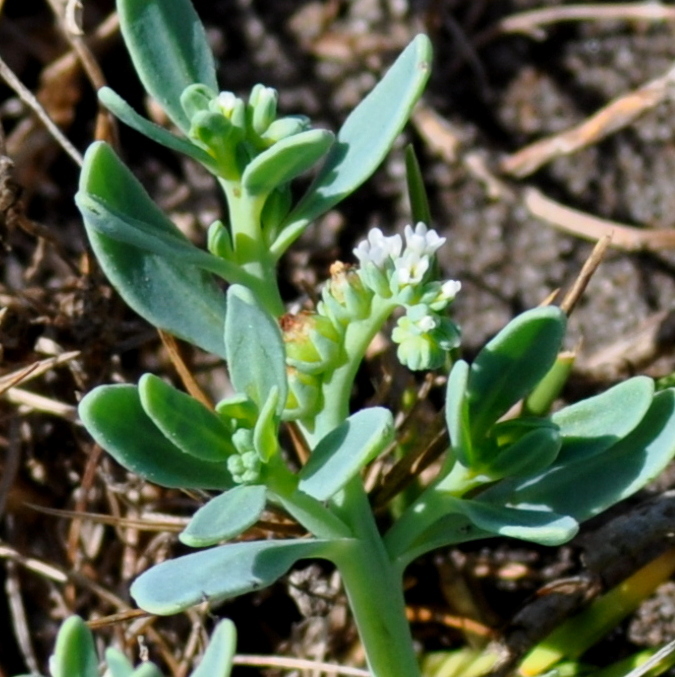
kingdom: Plantae
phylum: Tracheophyta
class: Magnoliopsida
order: Boraginales
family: Heliotropiaceae
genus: Heliotropium
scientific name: Heliotropium curassavicum
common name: Seaside heliotrope
